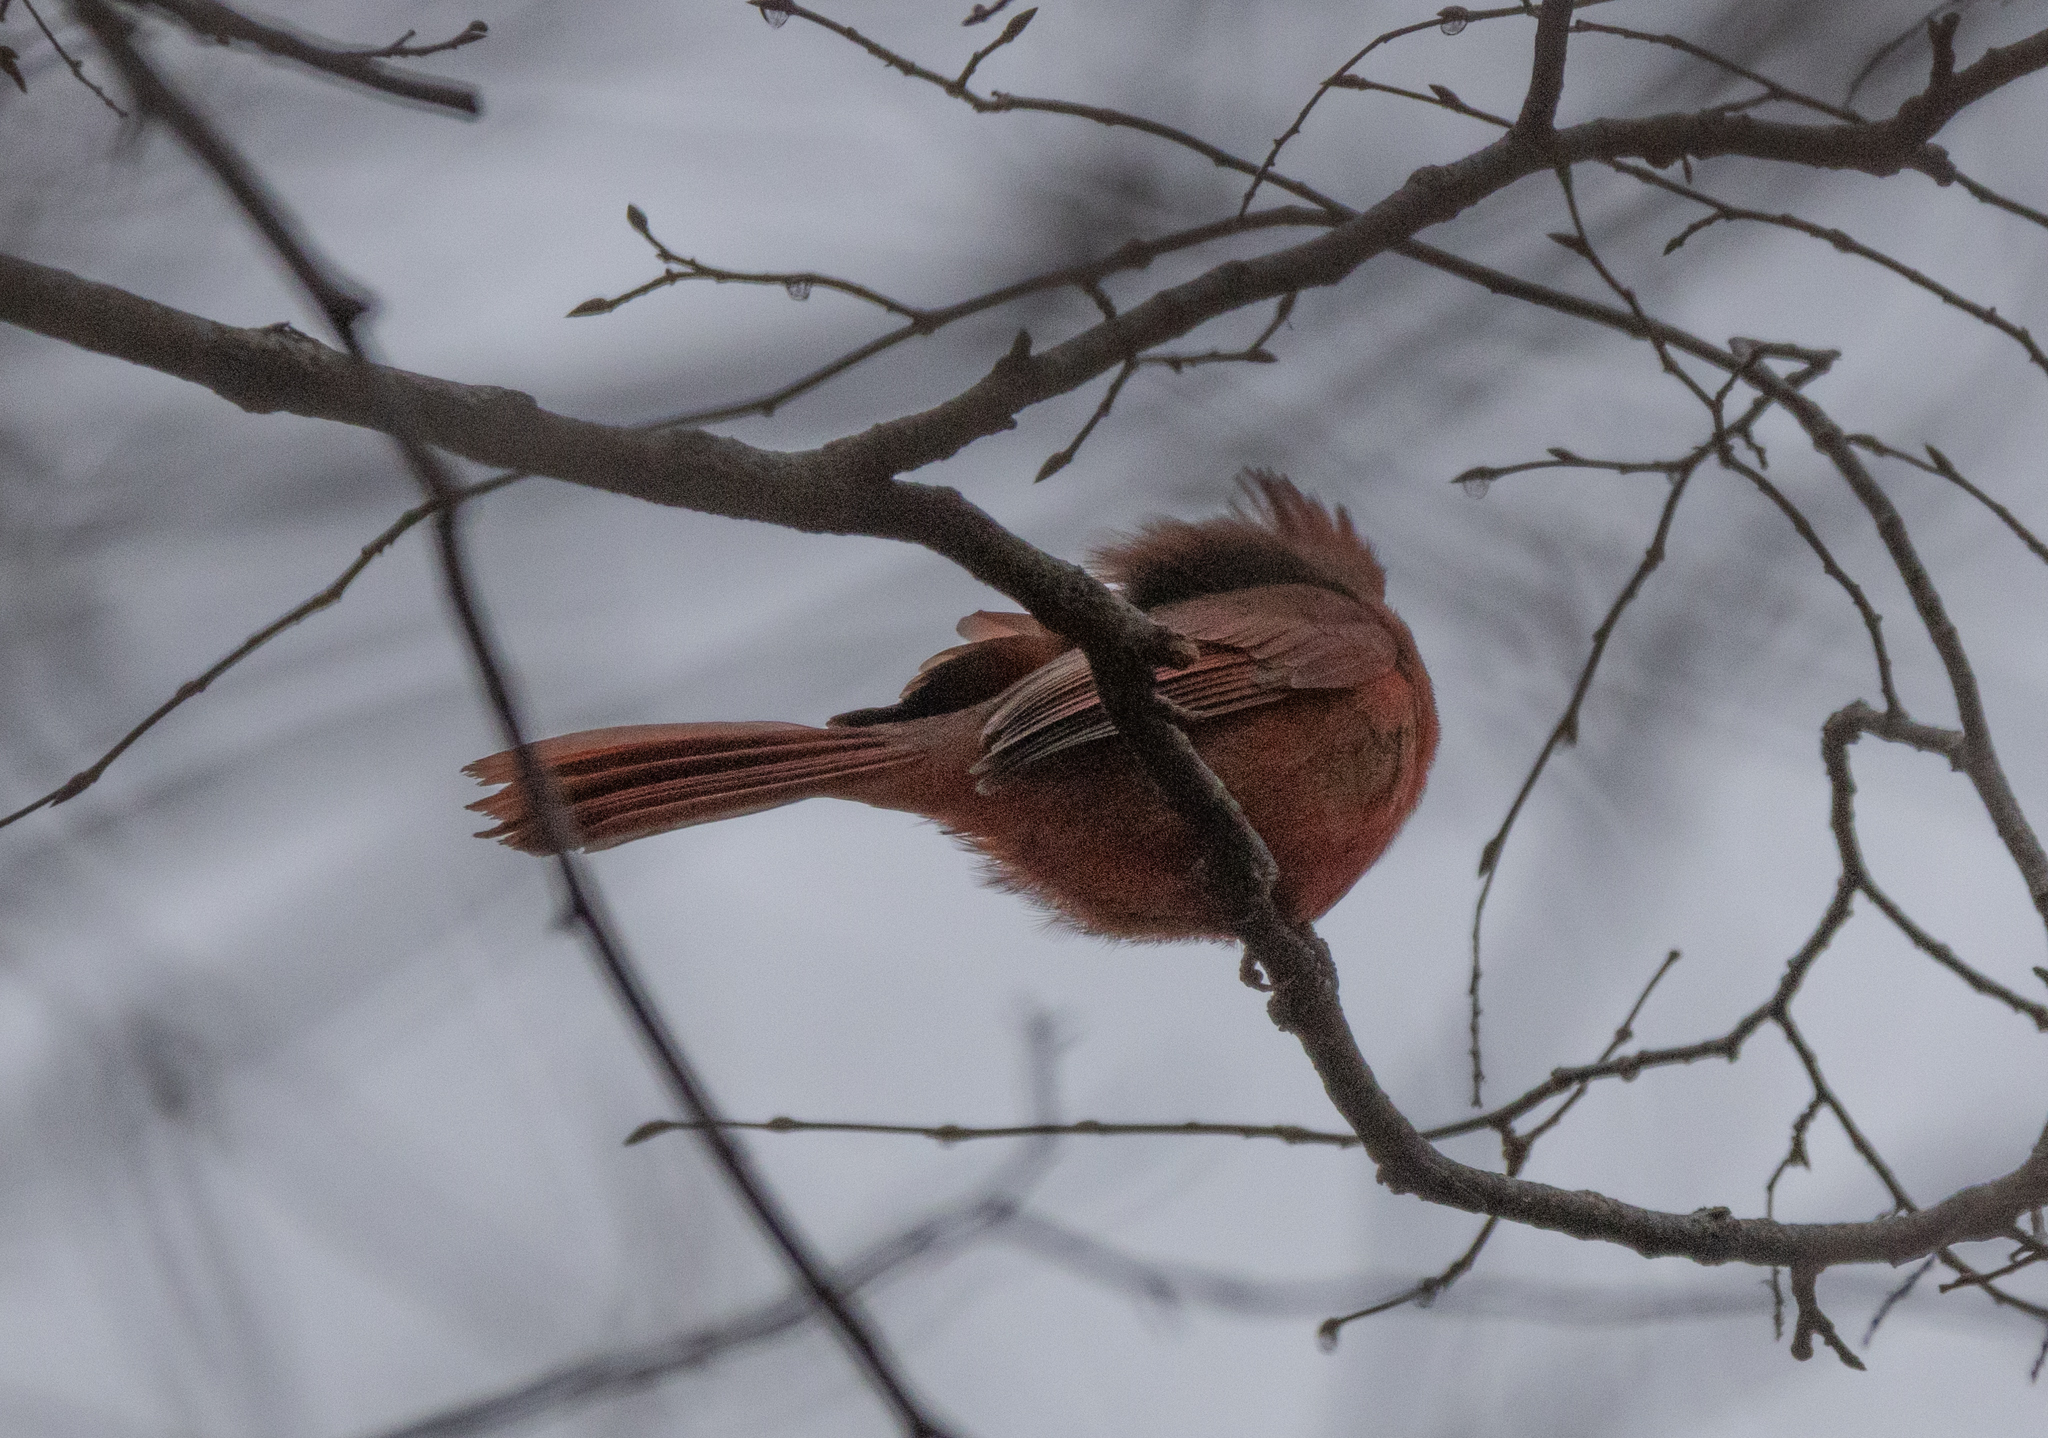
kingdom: Animalia
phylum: Chordata
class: Aves
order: Passeriformes
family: Cardinalidae
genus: Cardinalis
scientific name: Cardinalis cardinalis
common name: Northern cardinal
